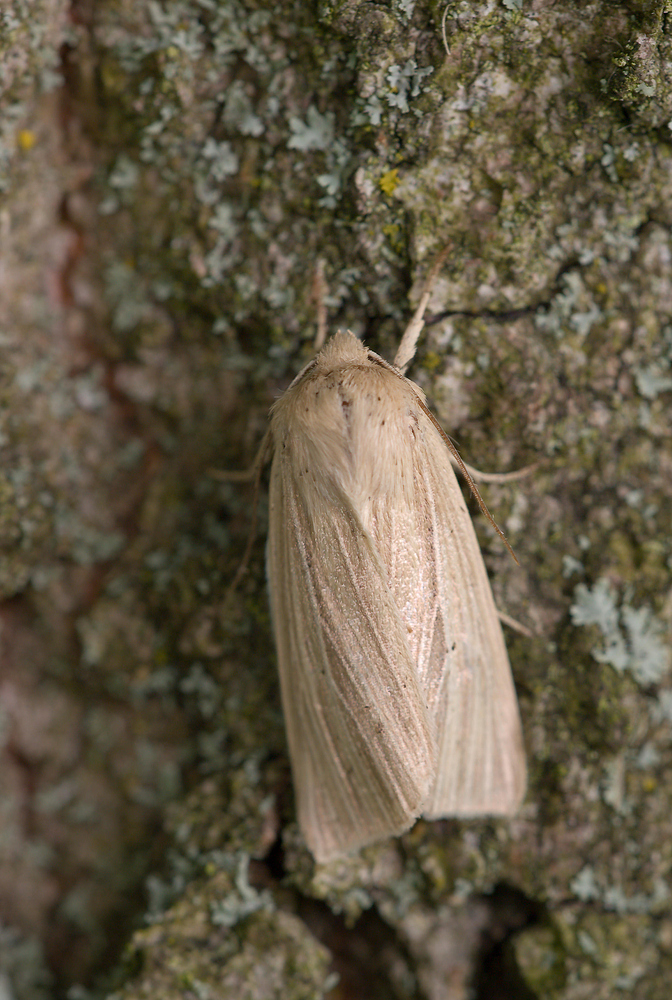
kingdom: Animalia
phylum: Arthropoda
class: Insecta
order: Lepidoptera
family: Noctuidae
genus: Mythimna
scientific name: Mythimna impura
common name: Smoky wainscot
